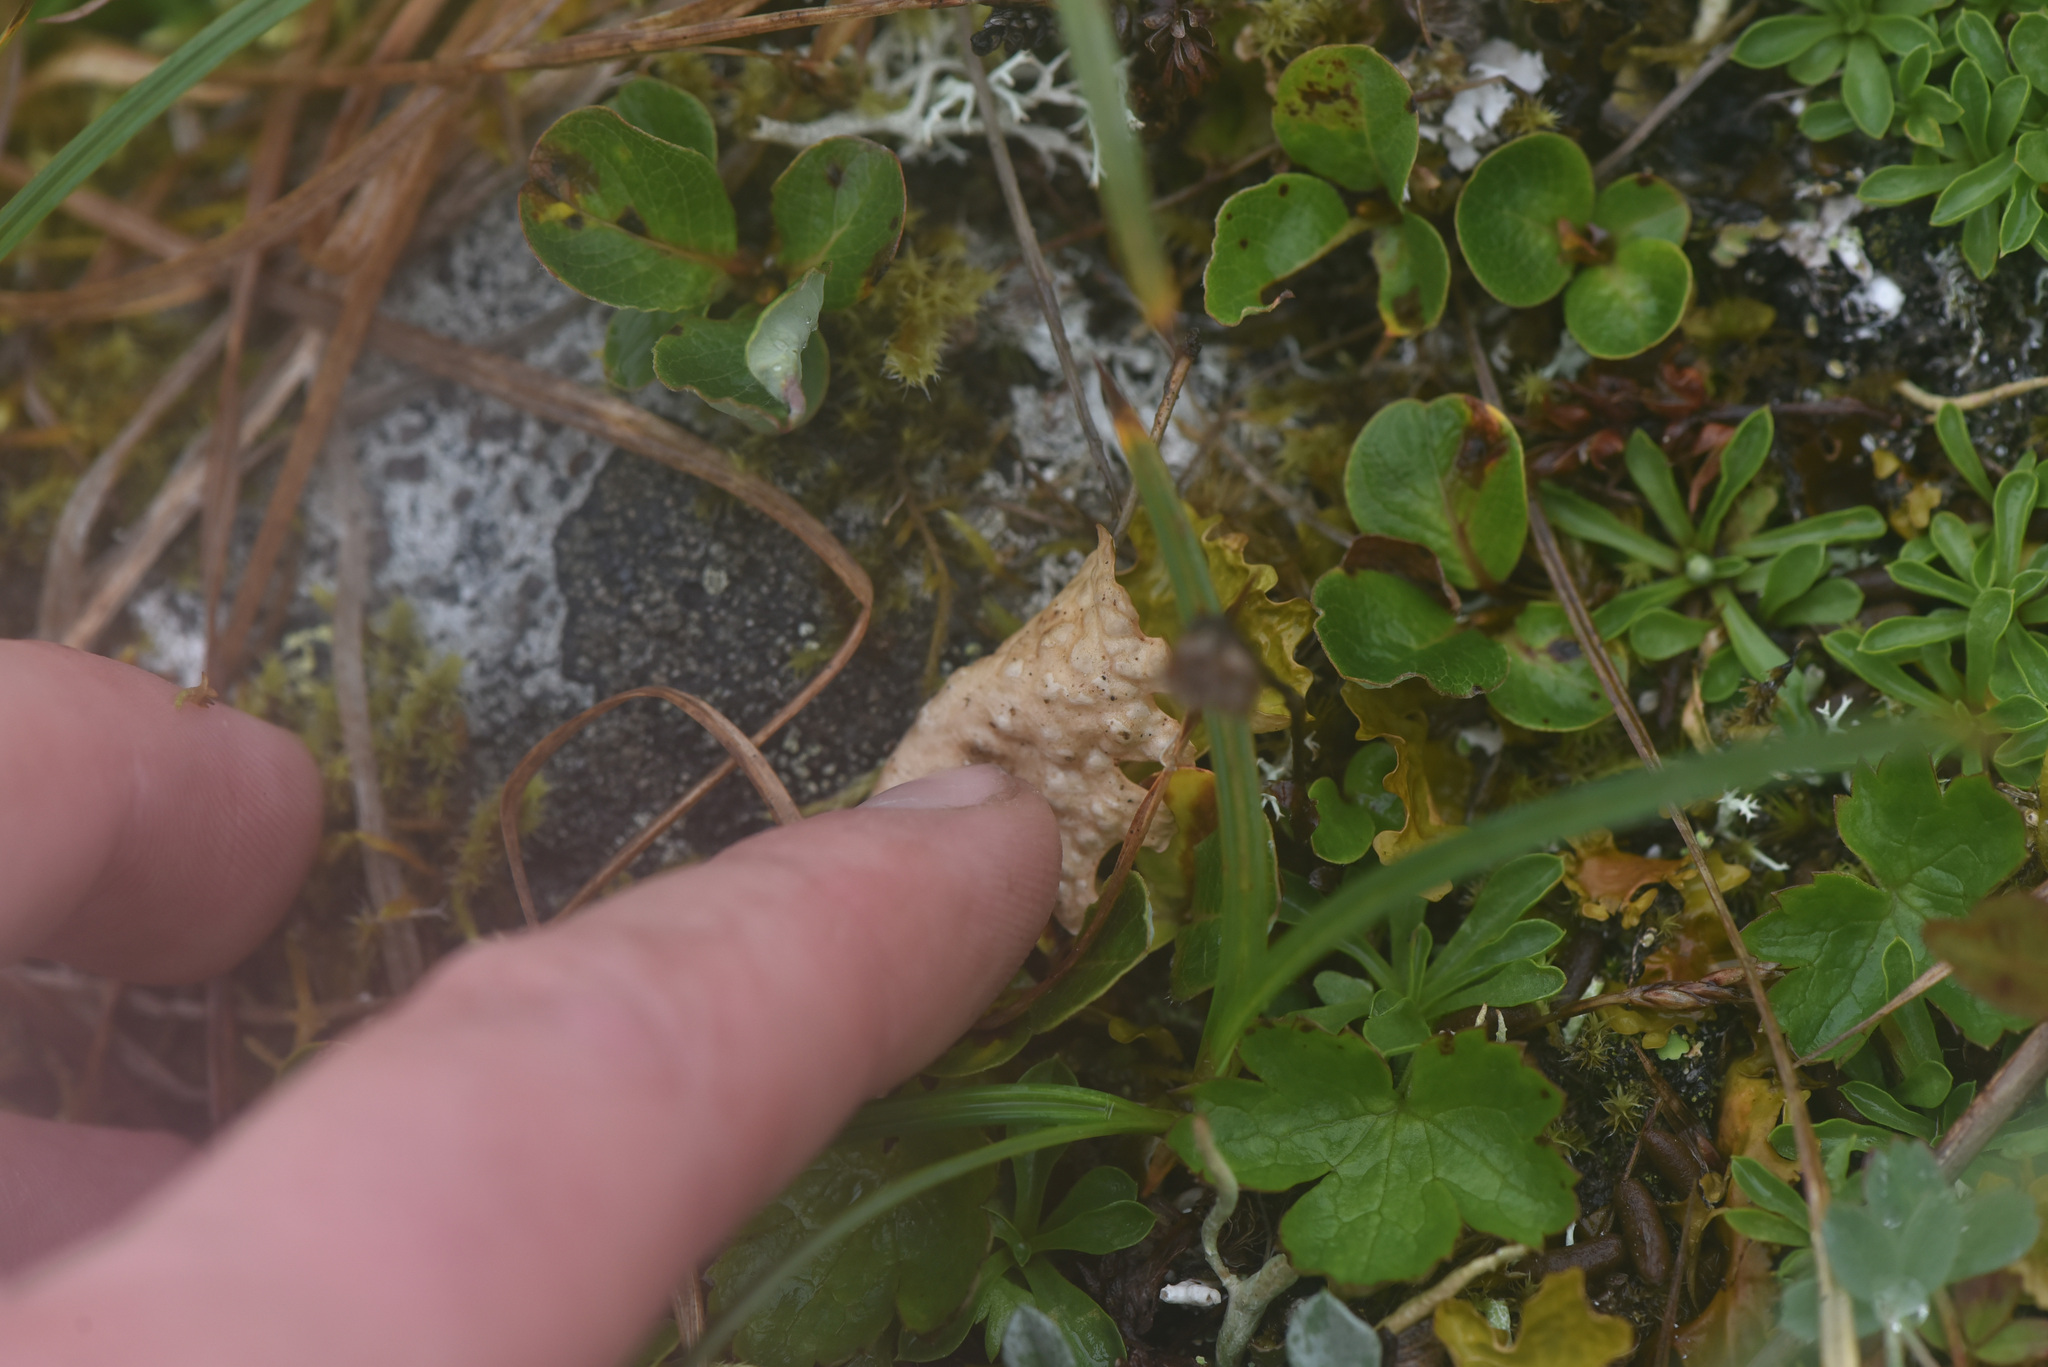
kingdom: Fungi
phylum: Ascomycota
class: Lecanoromycetes
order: Peltigerales
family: Lobariaceae
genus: Lobaria
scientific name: Lobaria linita
